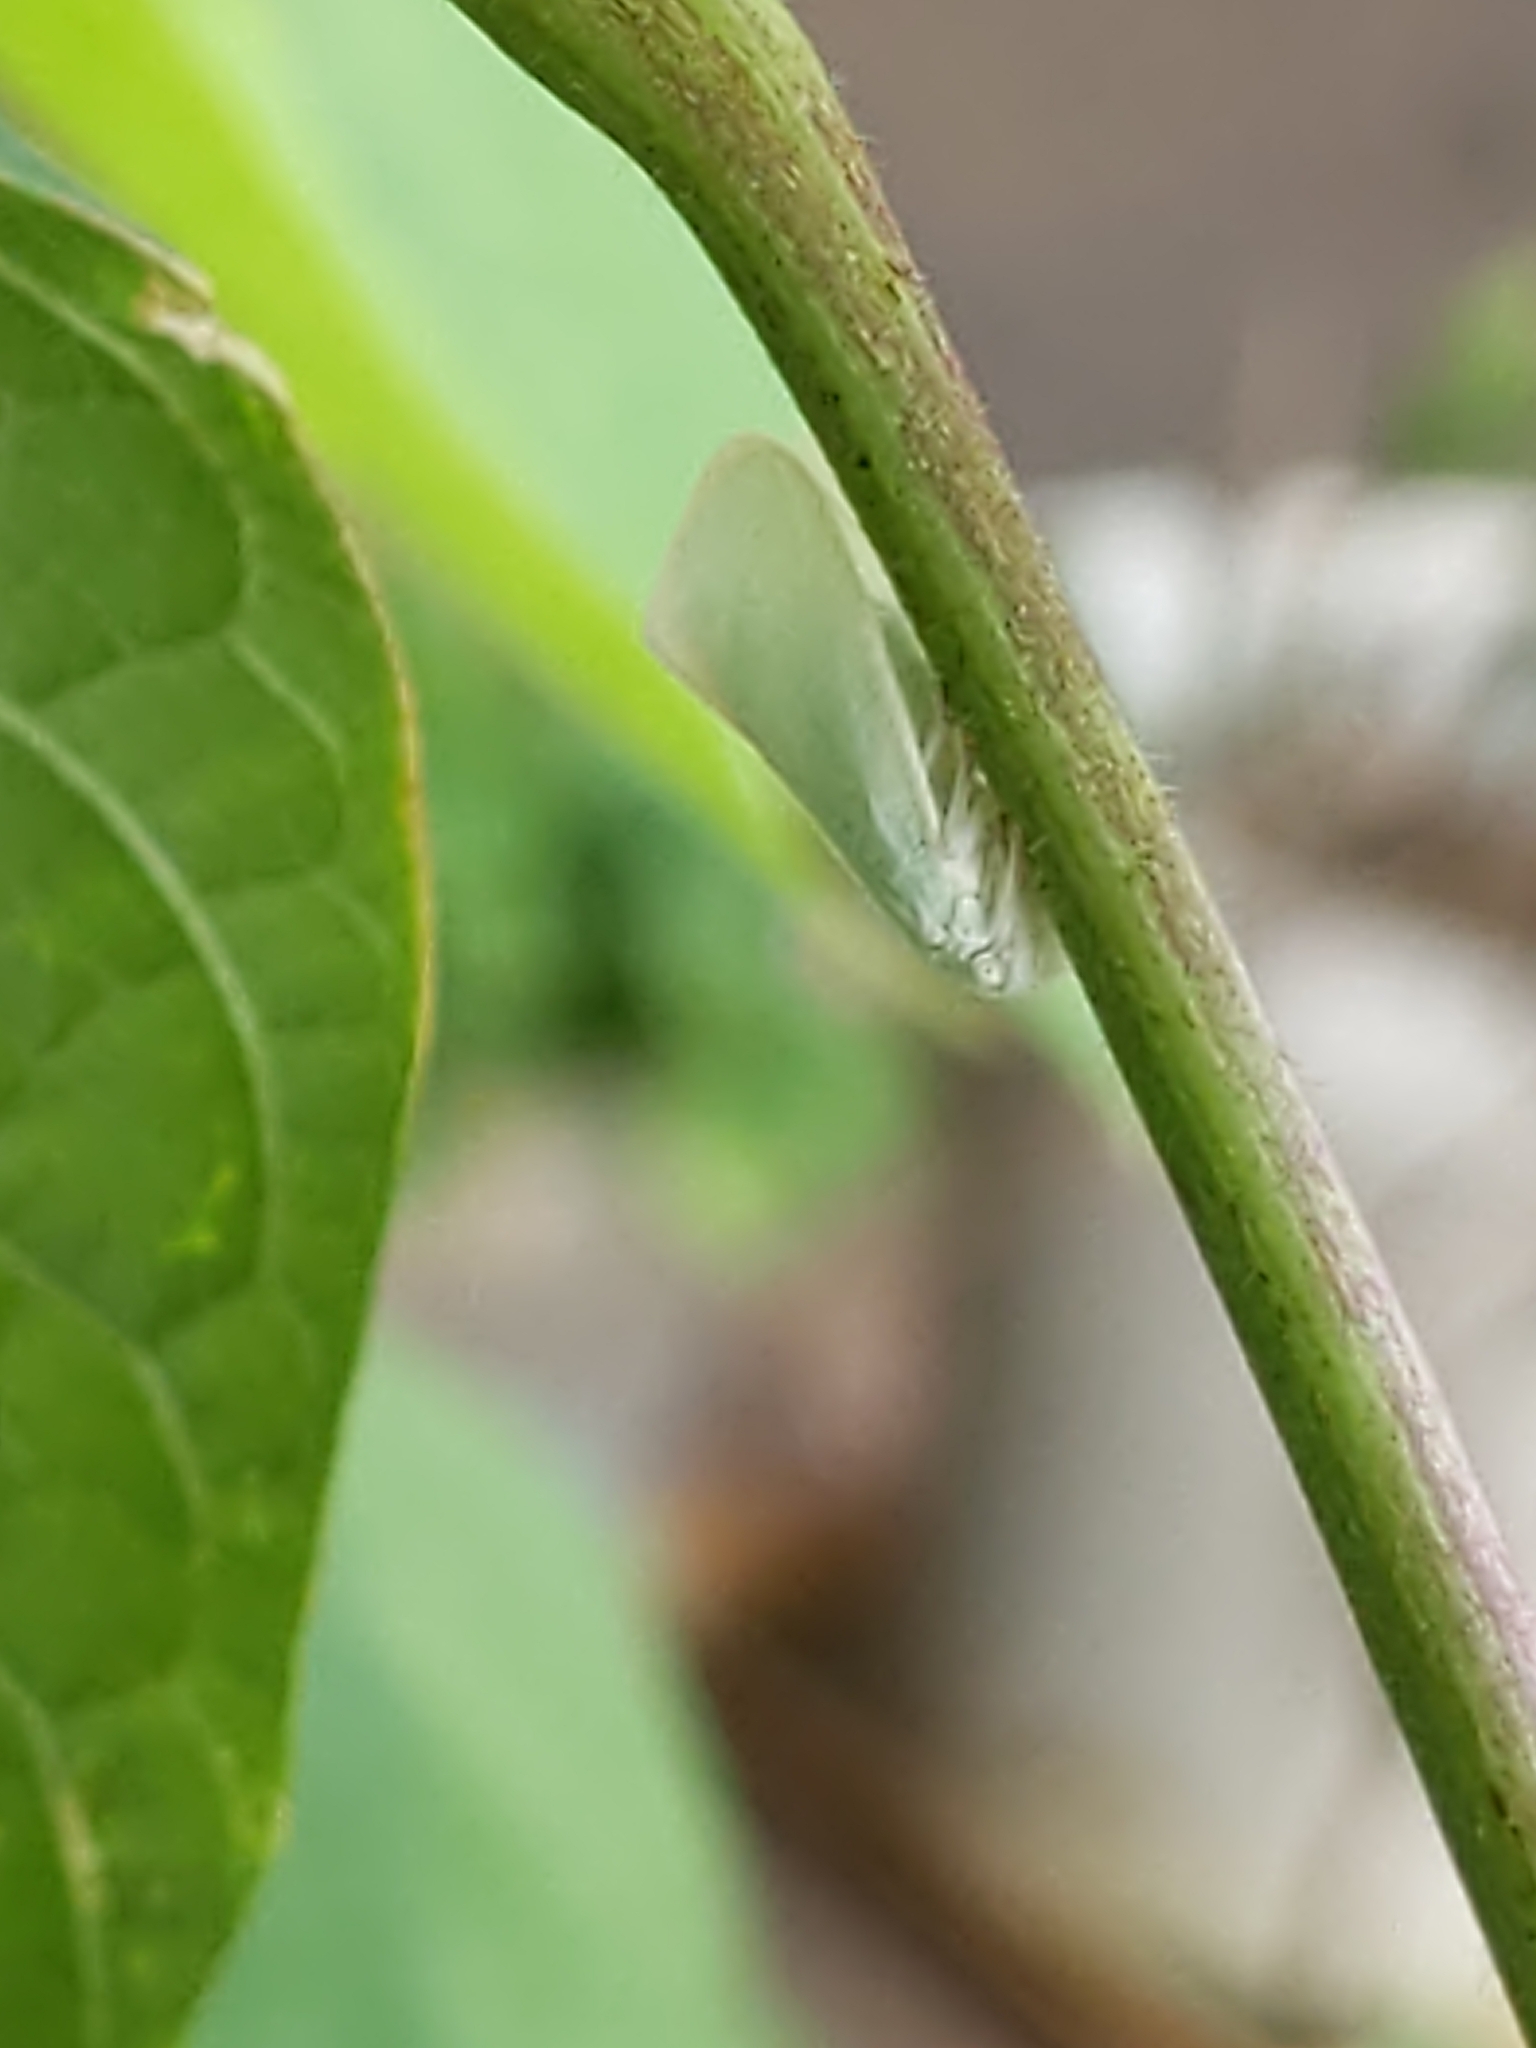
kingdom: Animalia
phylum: Arthropoda
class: Insecta
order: Hemiptera
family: Flatidae
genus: Flatormenis
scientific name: Flatormenis proxima
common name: Northern flatid planthopper
